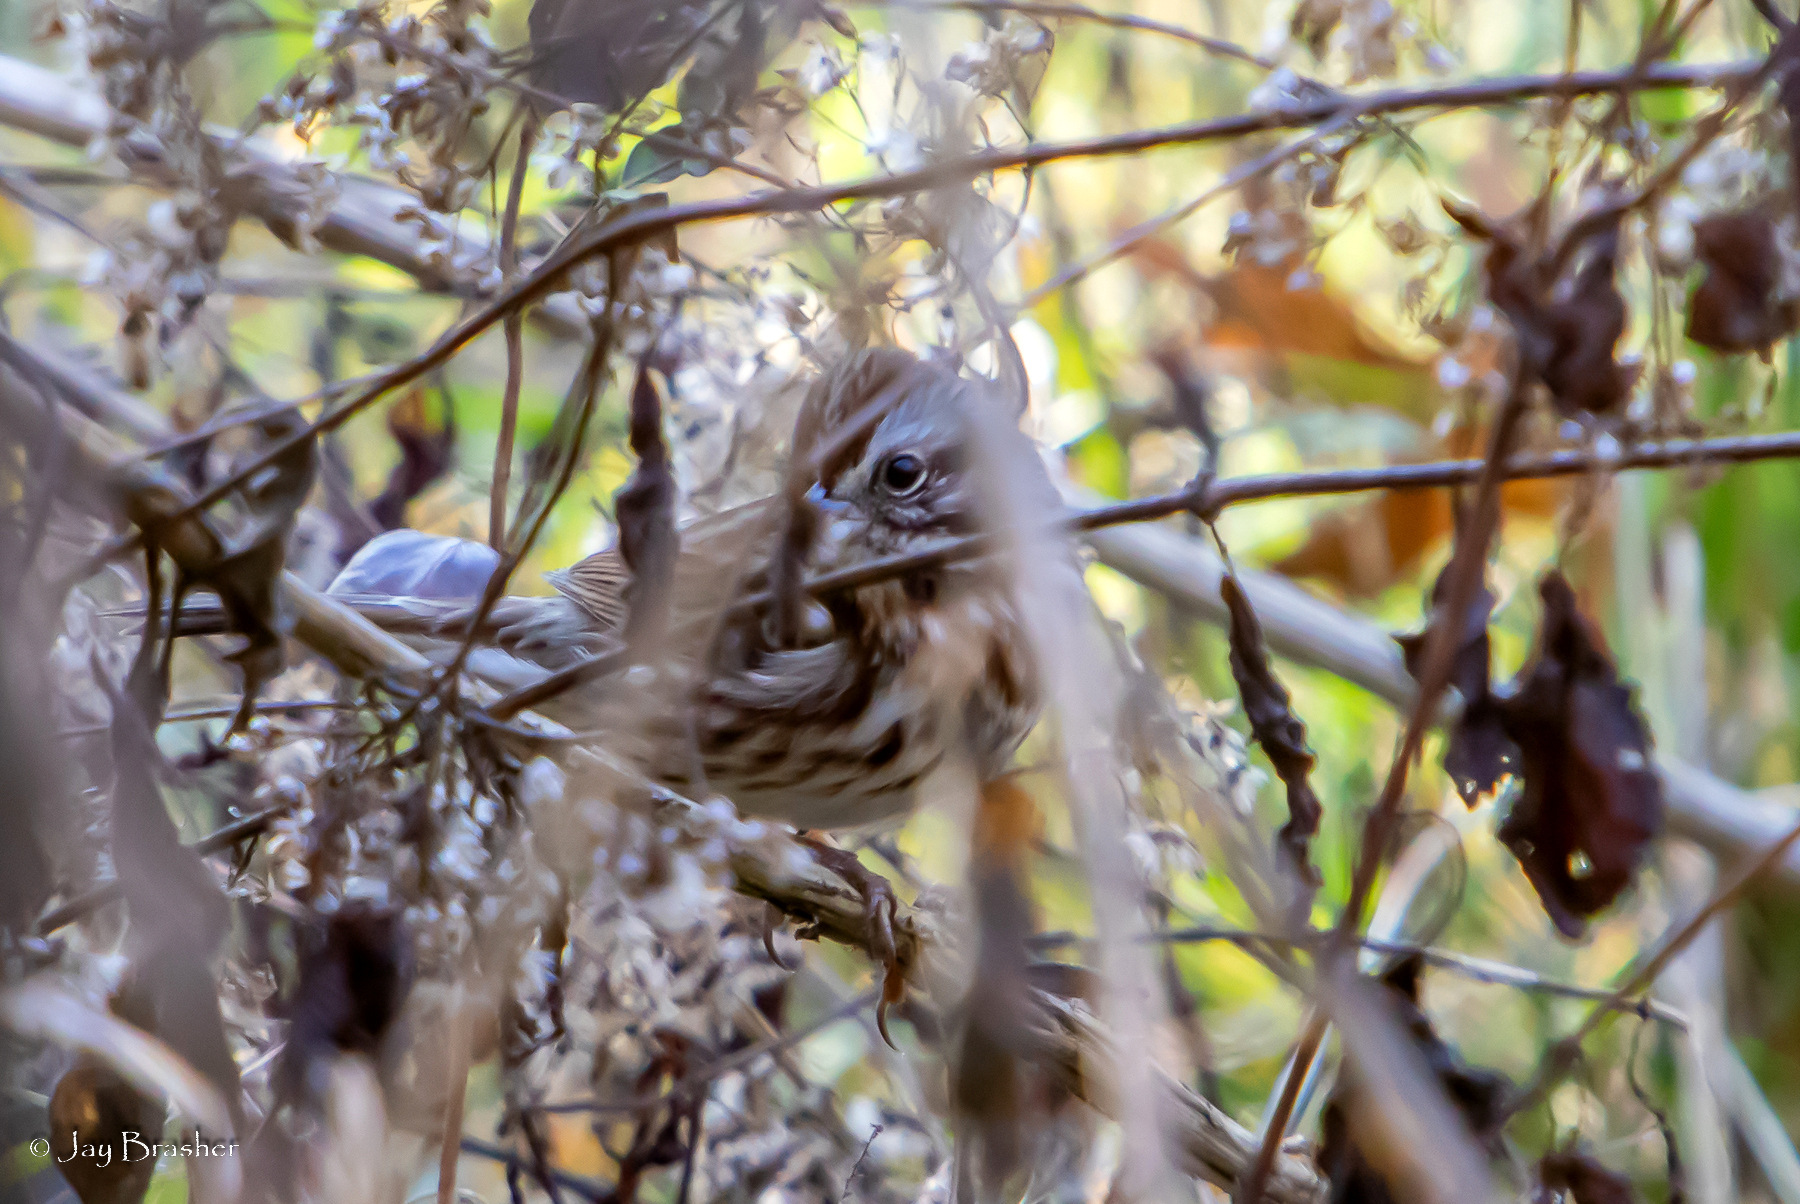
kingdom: Animalia
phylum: Chordata
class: Aves
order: Passeriformes
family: Passerellidae
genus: Melospiza
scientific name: Melospiza melodia
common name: Song sparrow
